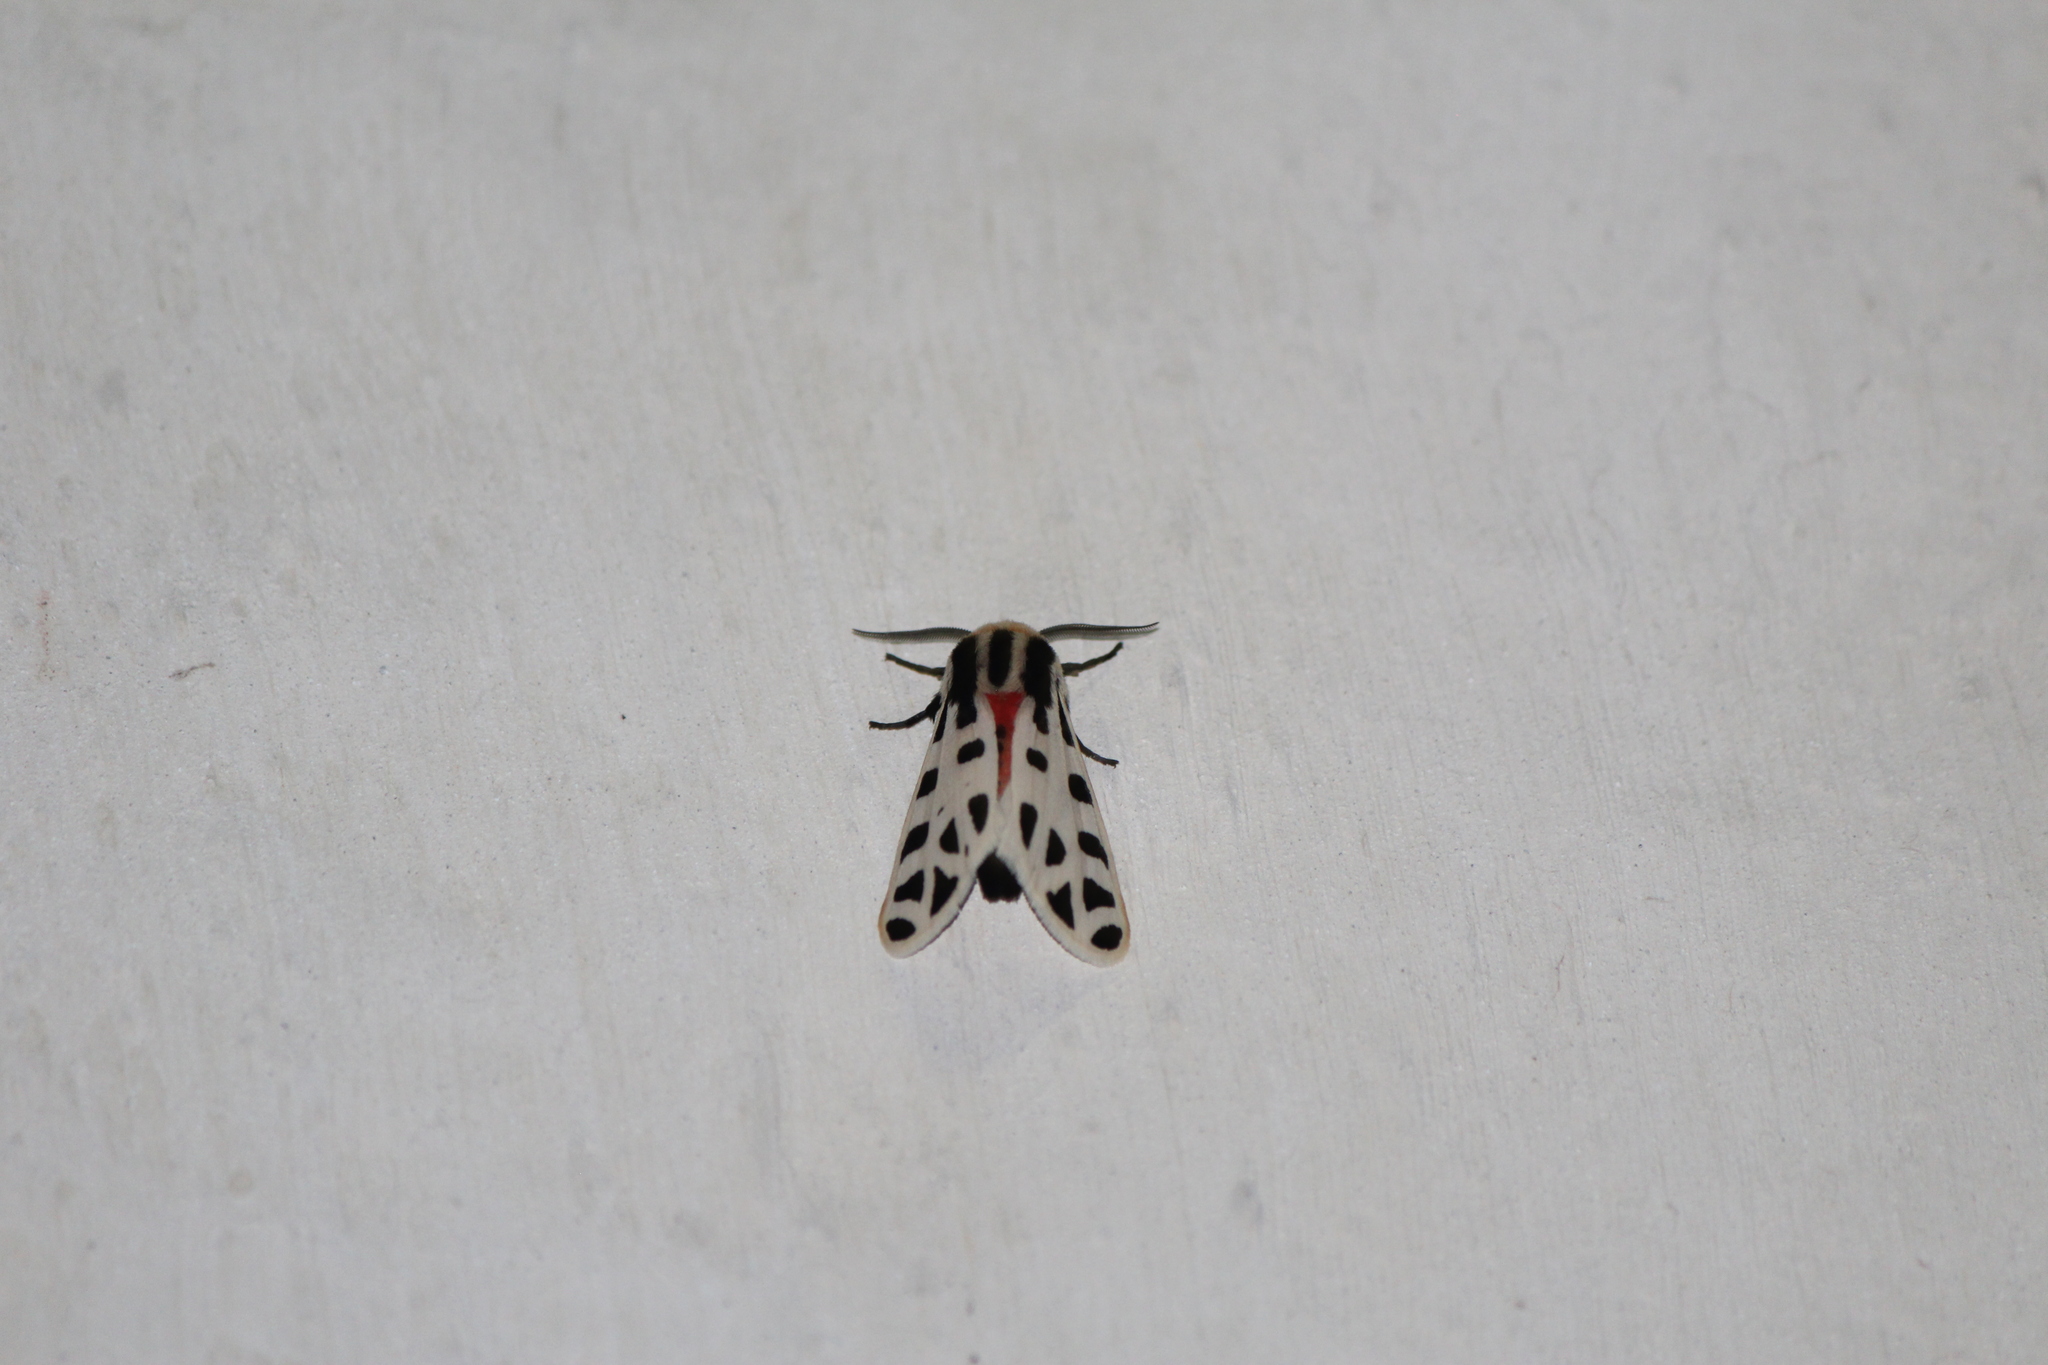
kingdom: Animalia
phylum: Arthropoda
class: Insecta
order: Lepidoptera
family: Erebidae
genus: Apantesis
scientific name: Apantesis
